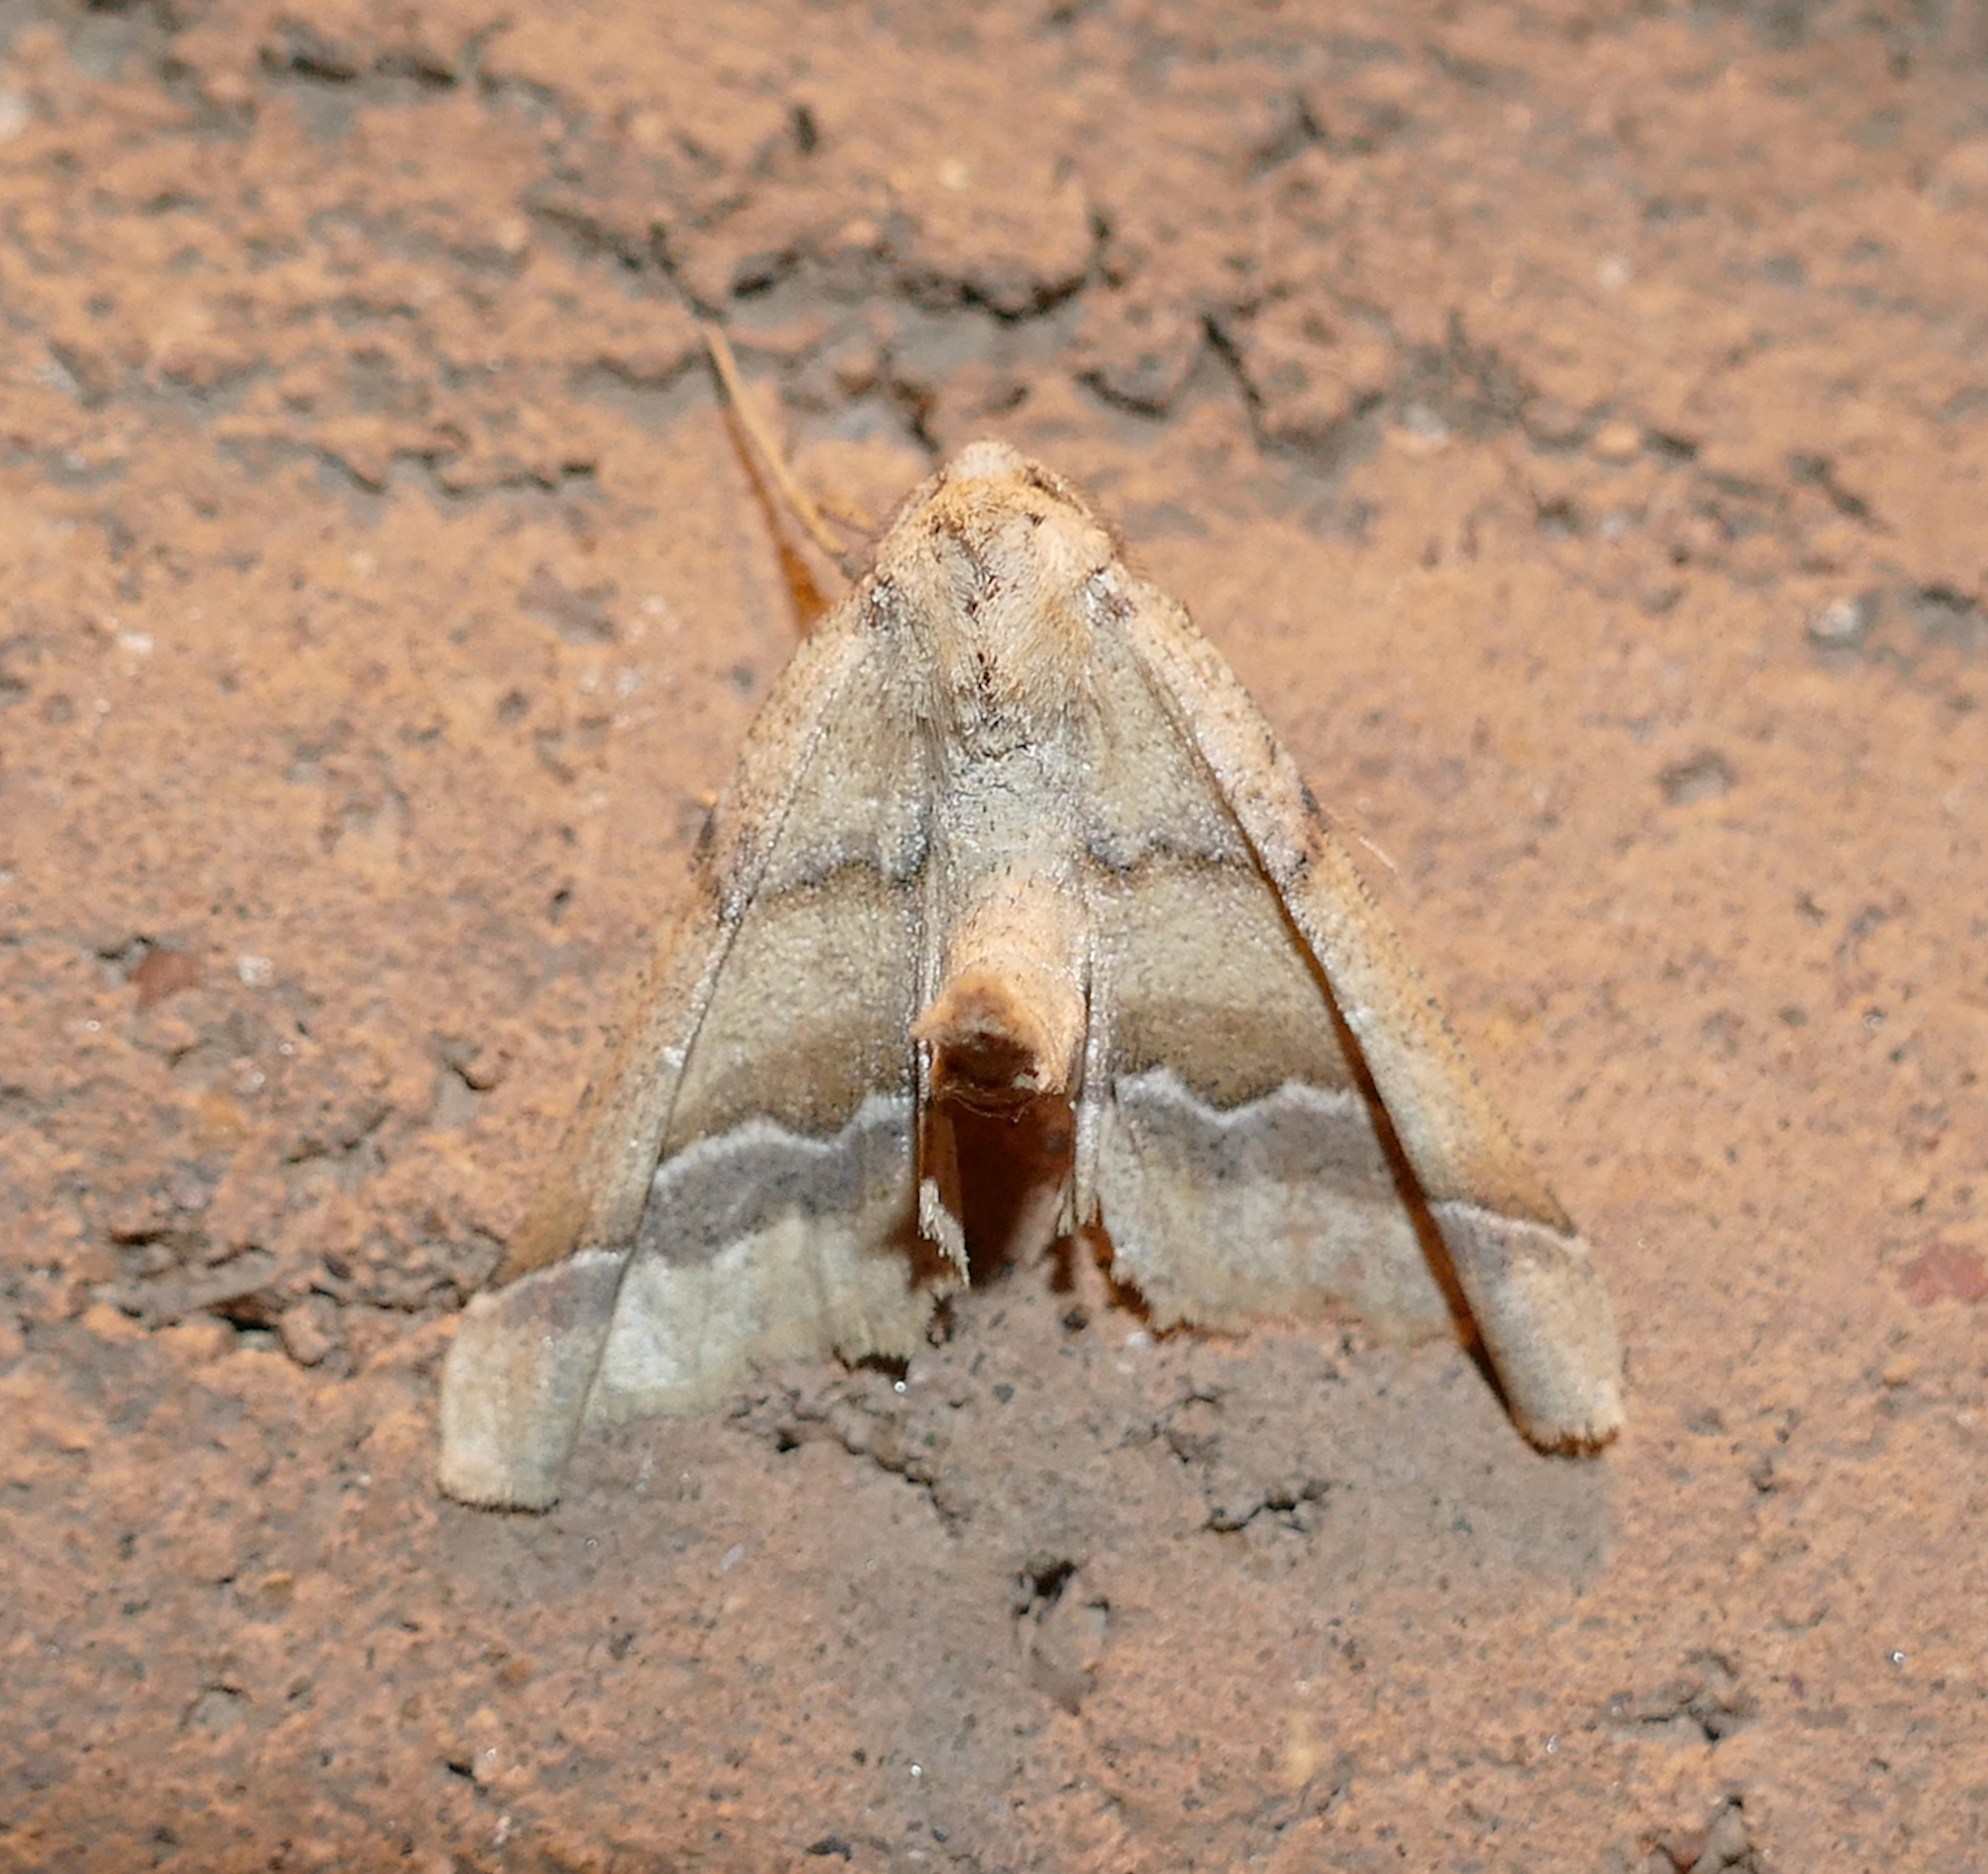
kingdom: Animalia
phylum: Arthropoda
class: Insecta
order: Lepidoptera
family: Geometridae
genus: Pero
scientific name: Pero meskaria
